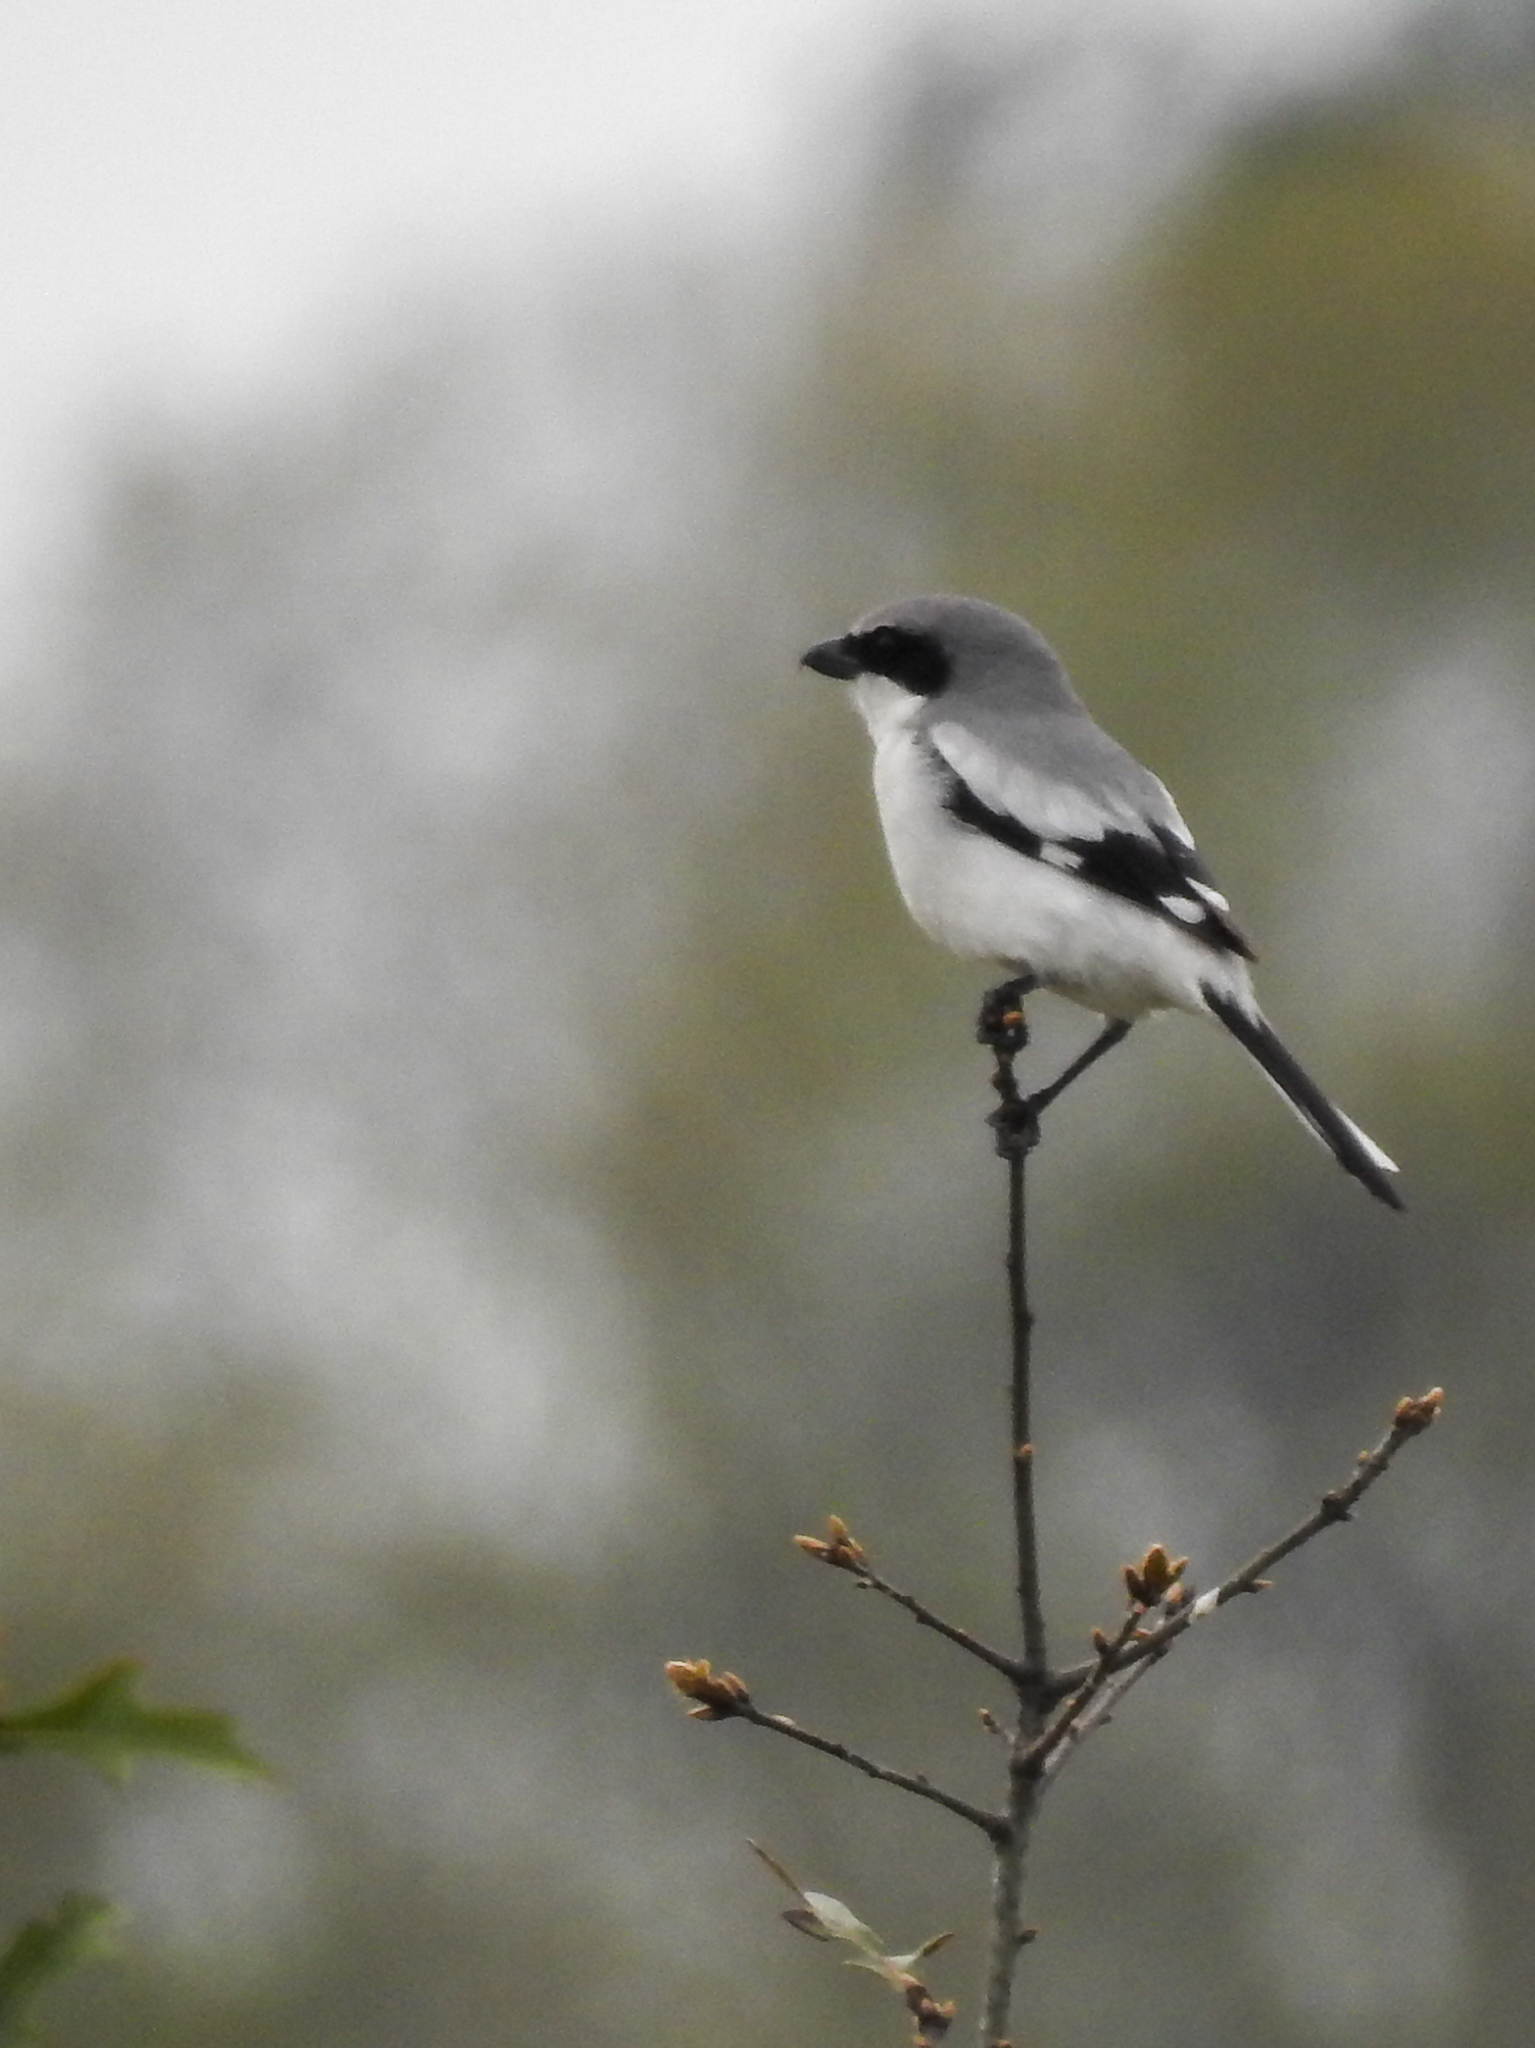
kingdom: Animalia
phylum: Chordata
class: Aves
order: Passeriformes
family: Laniidae
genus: Lanius
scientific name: Lanius ludovicianus
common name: Loggerhead shrike
